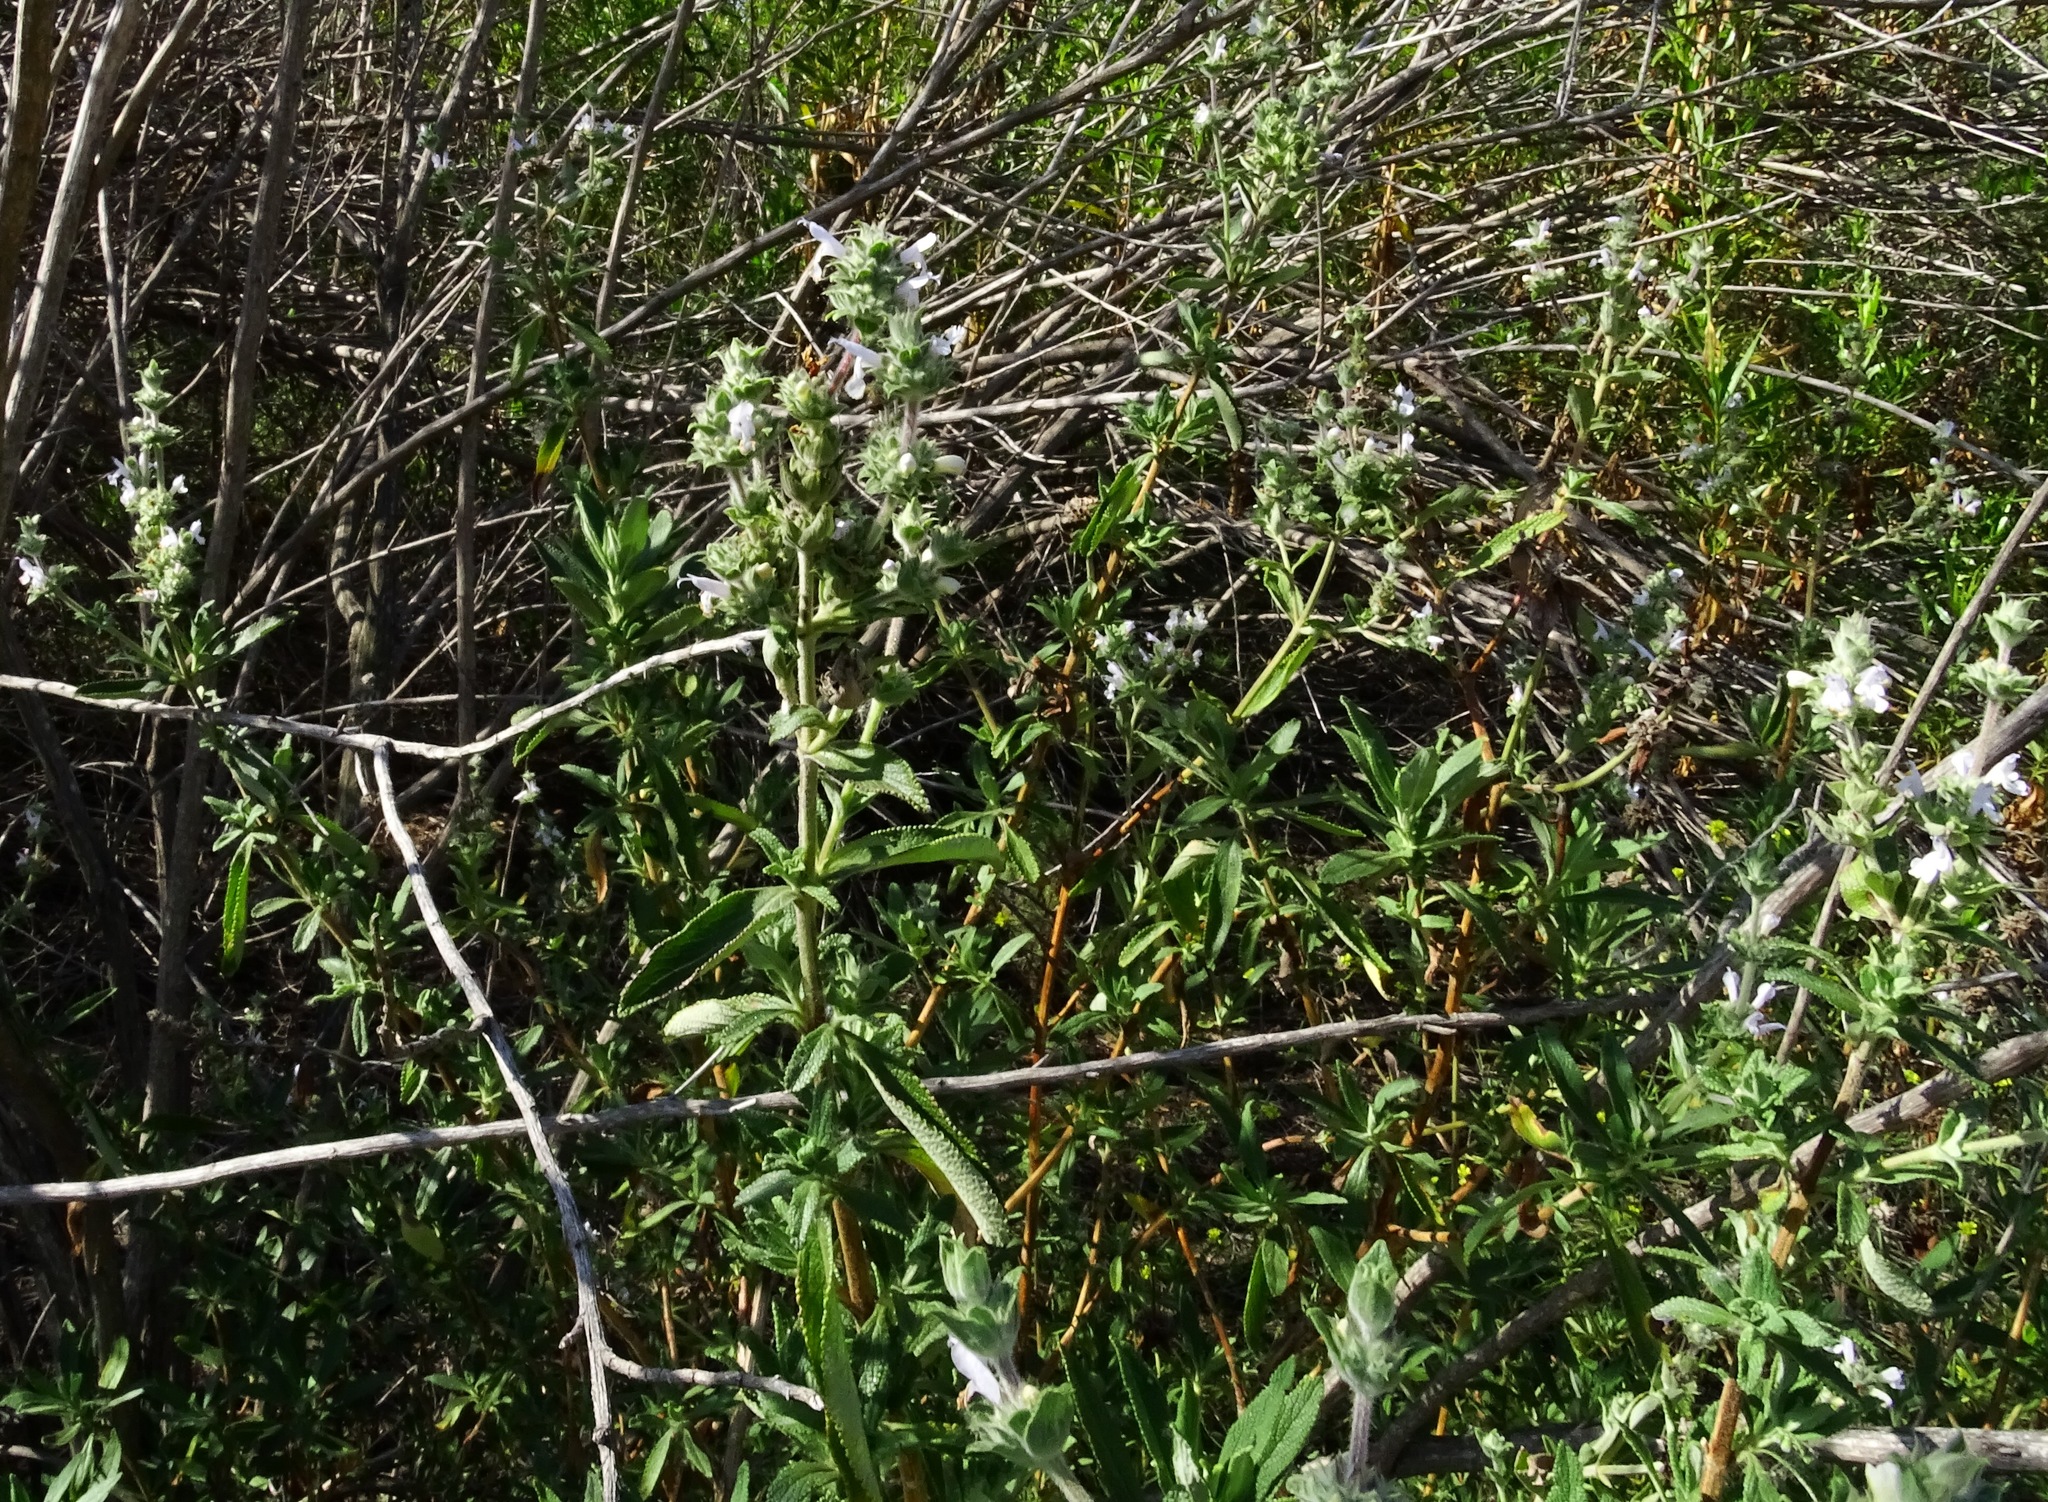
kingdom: Plantae
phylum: Tracheophyta
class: Magnoliopsida
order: Lamiales
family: Lamiaceae
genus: Salvia
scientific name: Salvia mellifera
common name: Black sage
